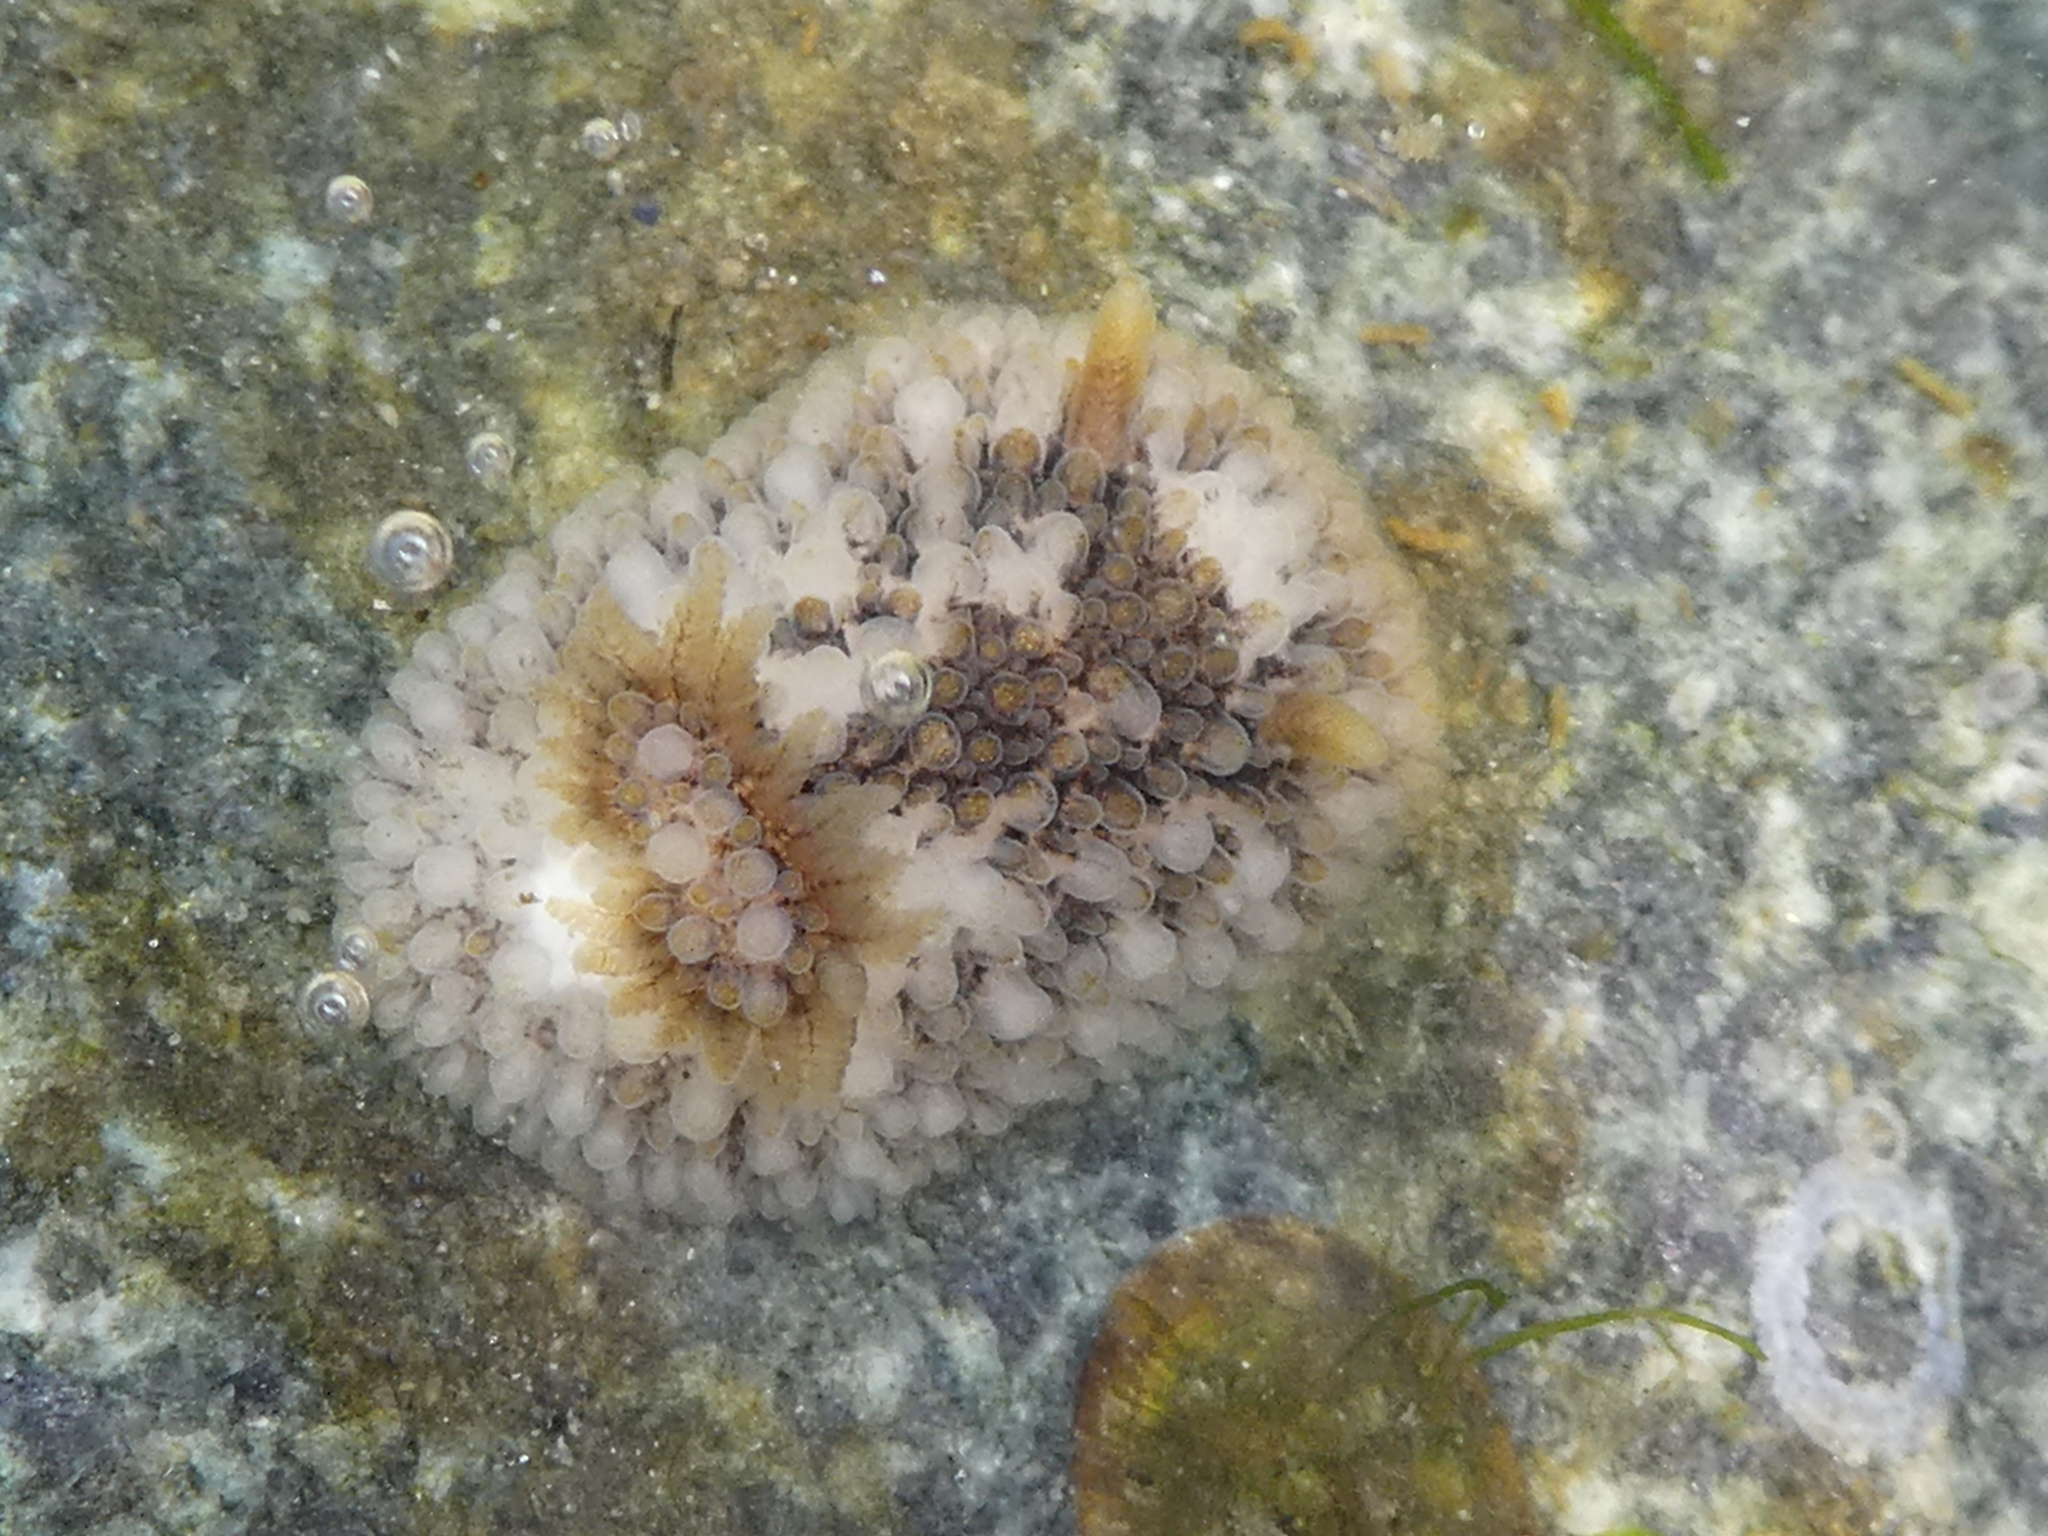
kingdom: Animalia
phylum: Mollusca
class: Gastropoda
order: Nudibranchia
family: Onchidorididae
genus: Onchidoris
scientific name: Onchidoris bilamellata
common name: Barnacle-eating onchidoris
